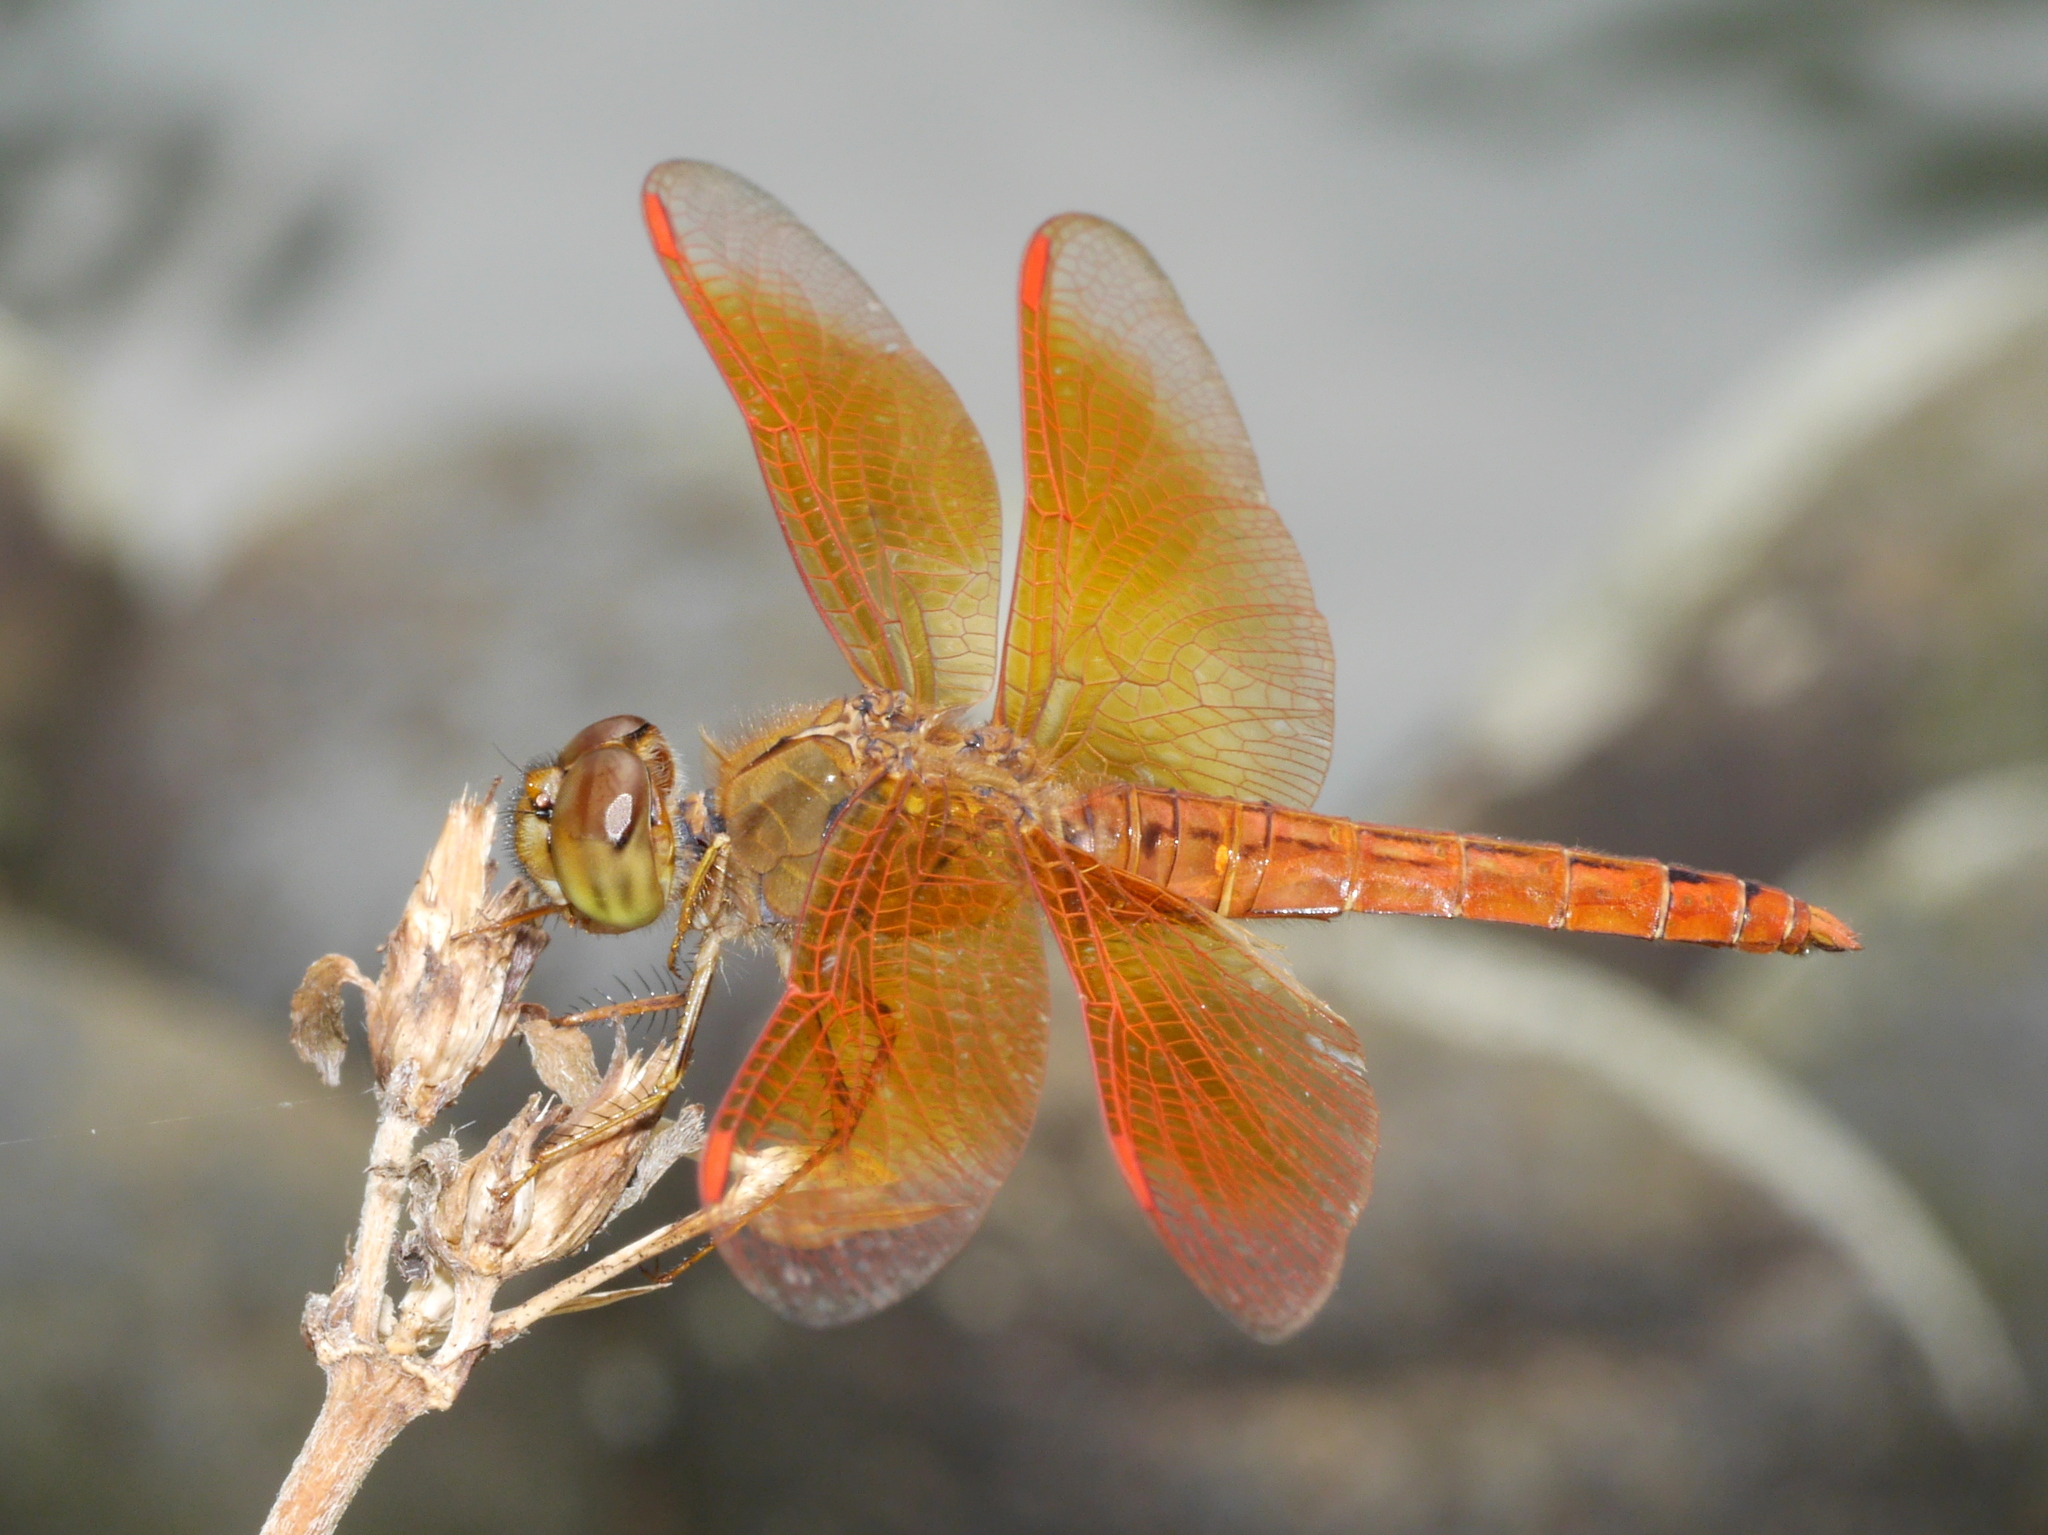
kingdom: Animalia
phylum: Arthropoda
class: Insecta
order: Odonata
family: Libellulidae
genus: Brachythemis
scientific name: Brachythemis contaminata
